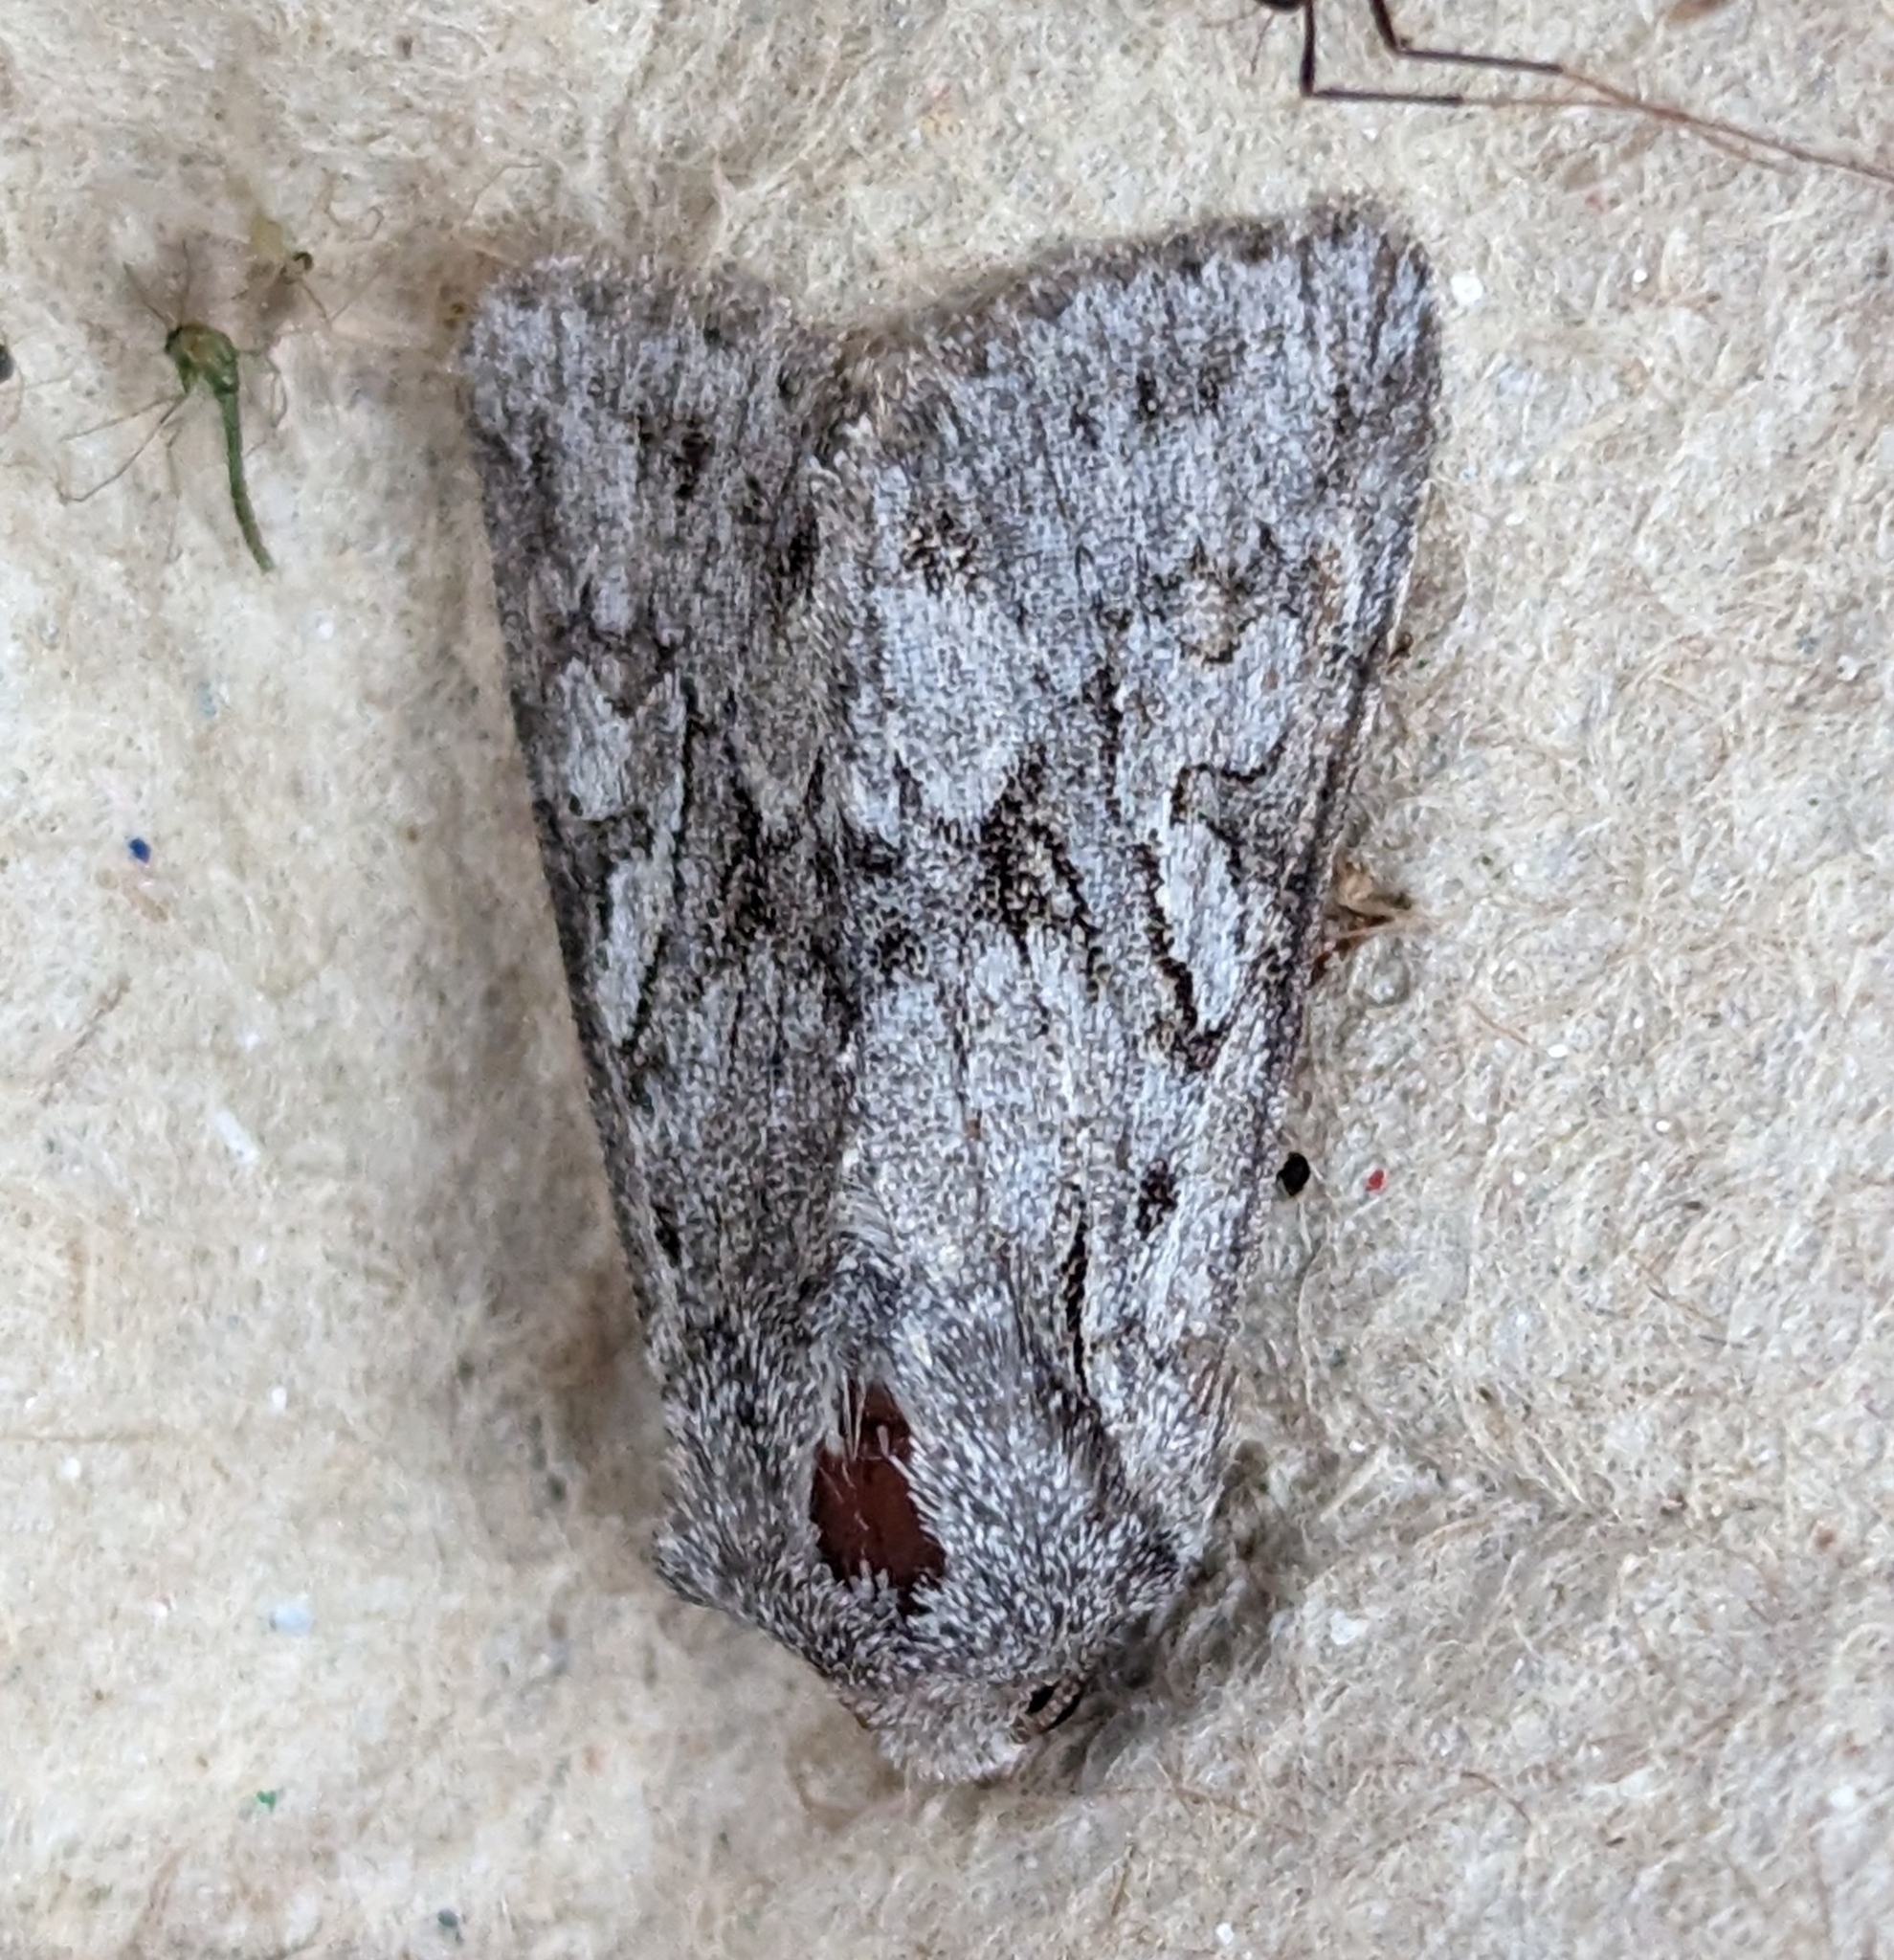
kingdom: Animalia
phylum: Arthropoda
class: Insecta
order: Lepidoptera
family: Noctuidae
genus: Lacinipolia
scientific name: Lacinipolia patalis
